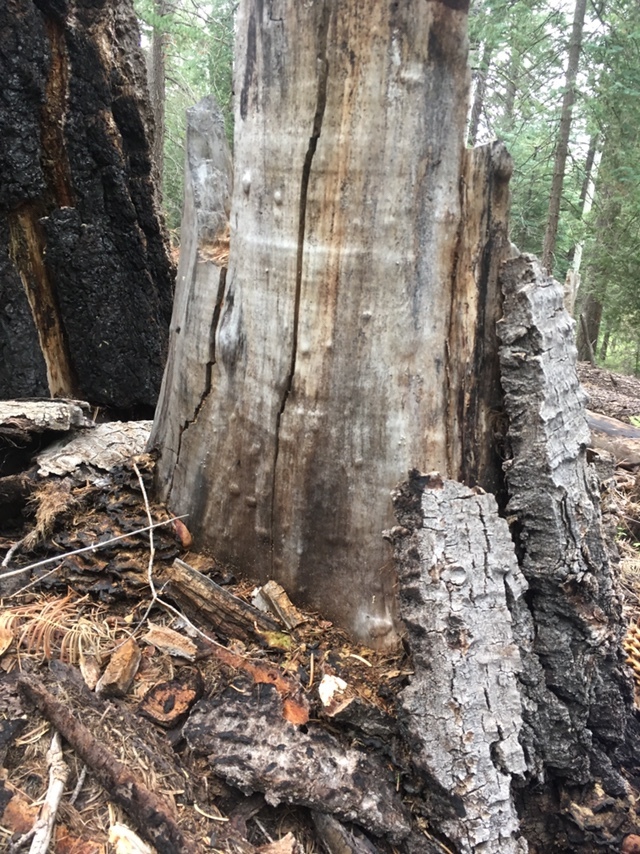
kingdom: Fungi
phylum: Basidiomycota
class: Agaricomycetes
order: Polyporales
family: Podoscyphaceae
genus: Abortiporus
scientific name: Abortiporus biennis
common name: Blushing rosette
